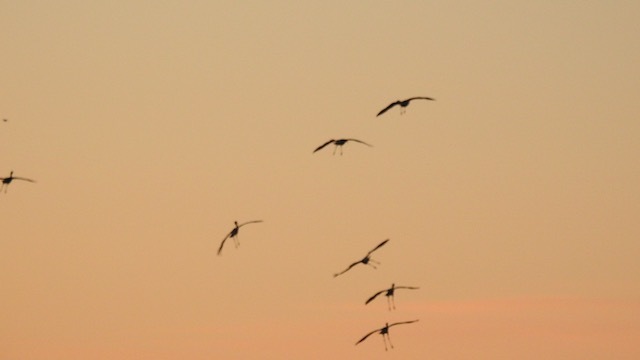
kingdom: Animalia
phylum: Chordata
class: Aves
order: Gruiformes
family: Gruidae
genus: Grus
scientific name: Grus canadensis
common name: Sandhill crane
